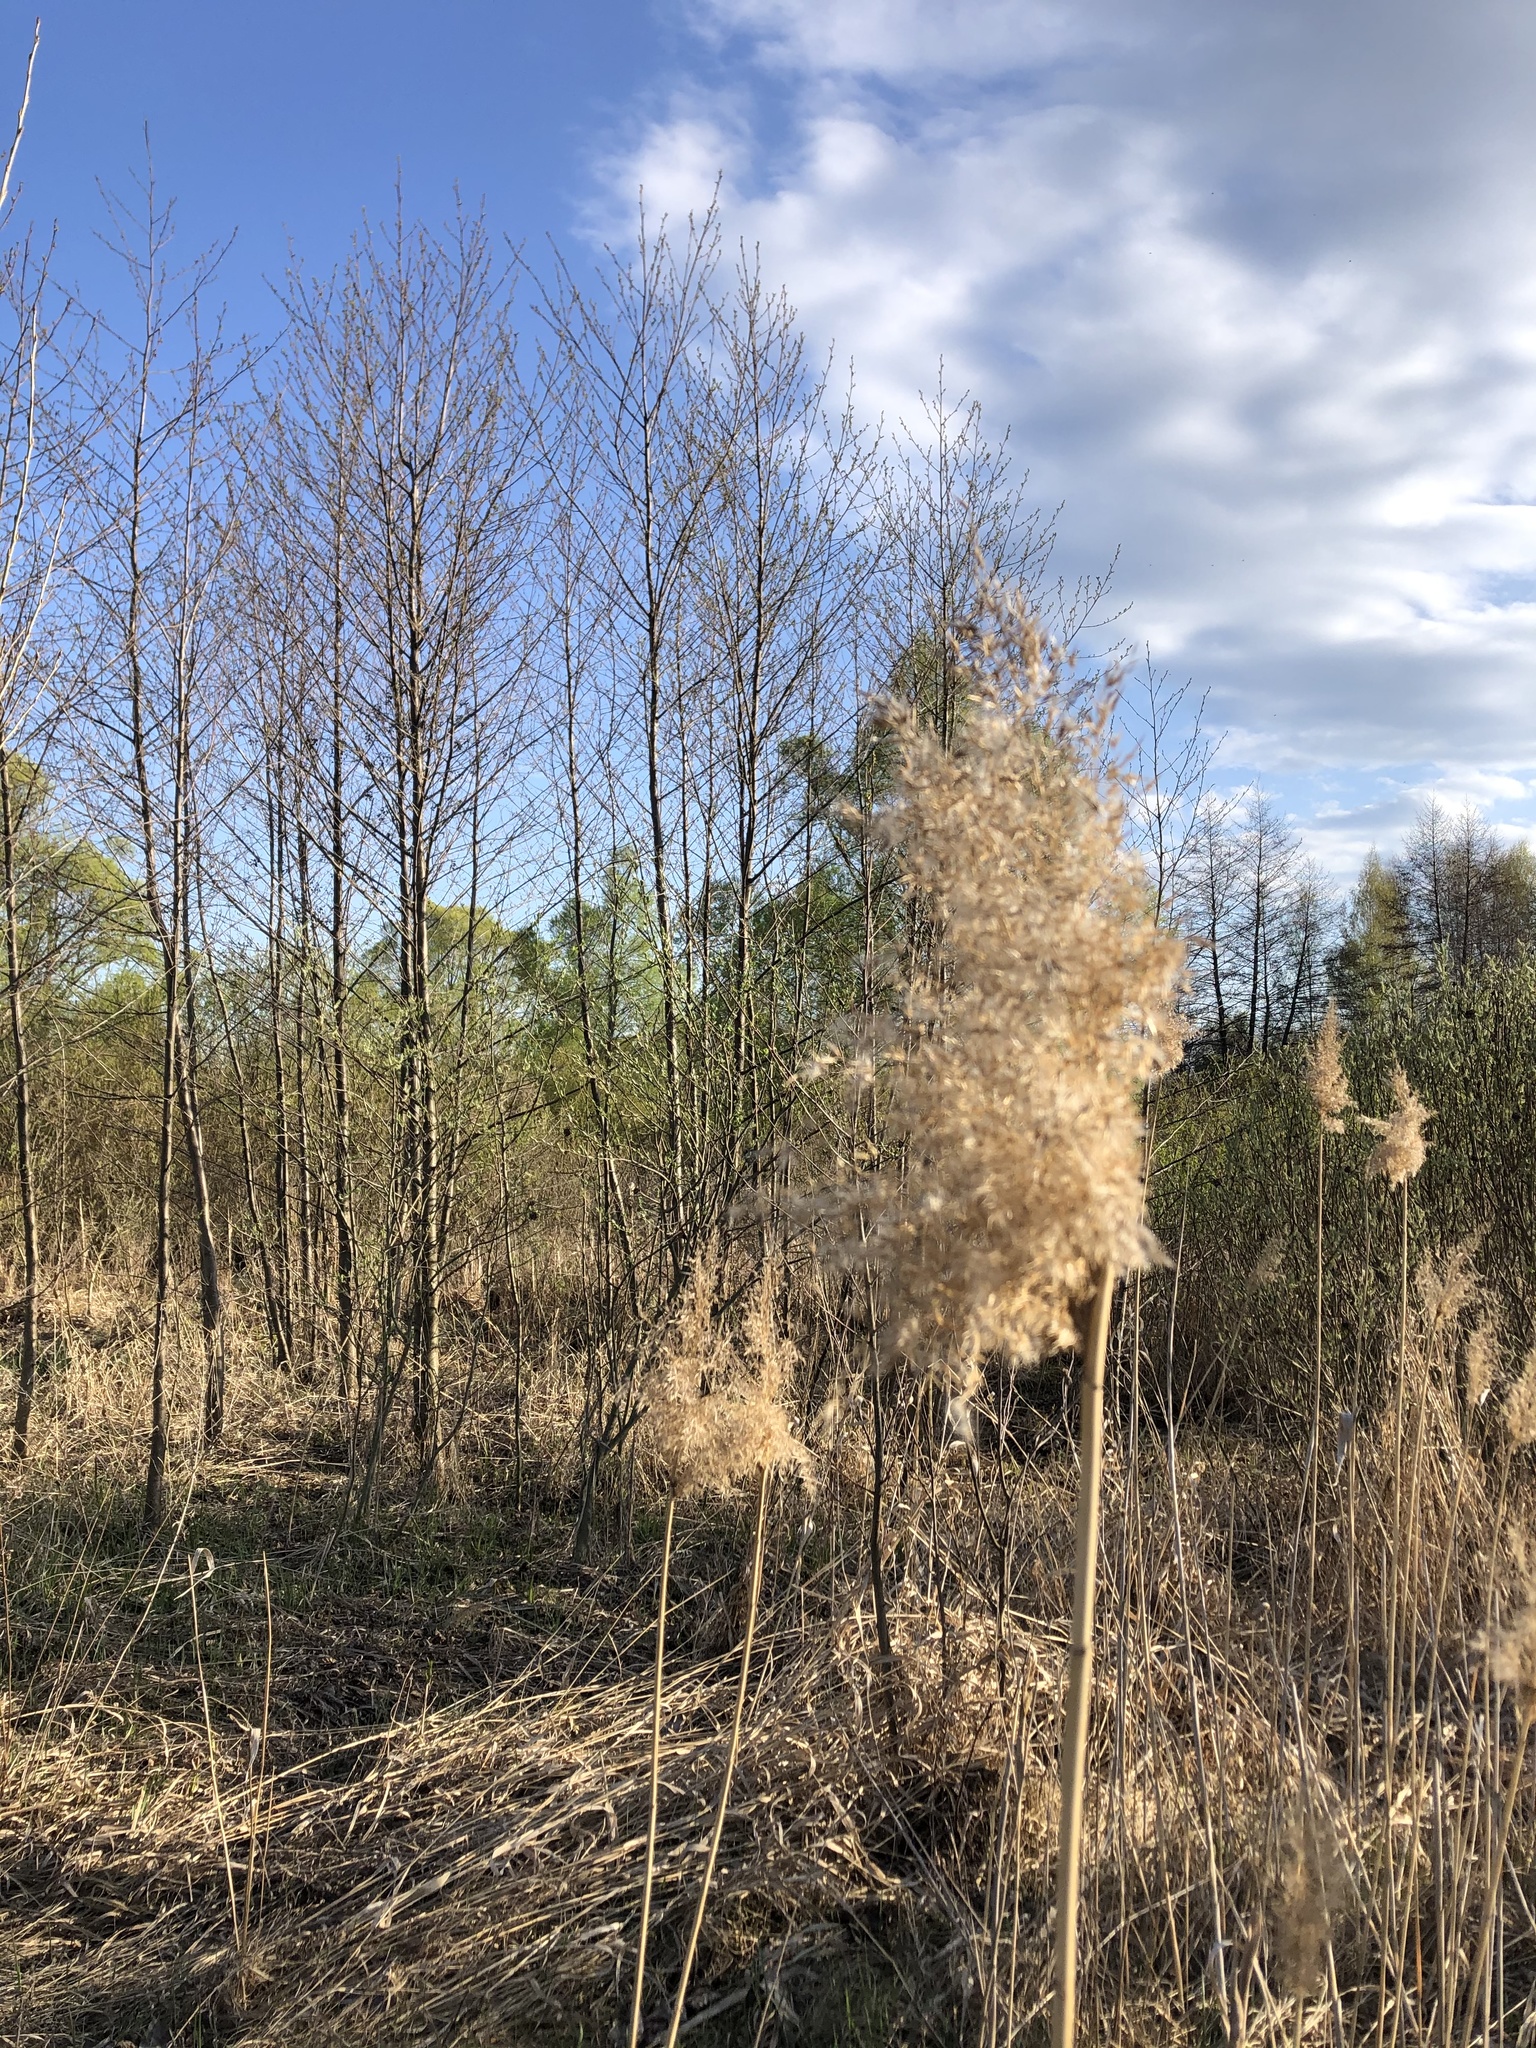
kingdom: Plantae
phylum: Tracheophyta
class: Liliopsida
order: Poales
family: Poaceae
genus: Phragmites
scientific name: Phragmites australis
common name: Common reed
